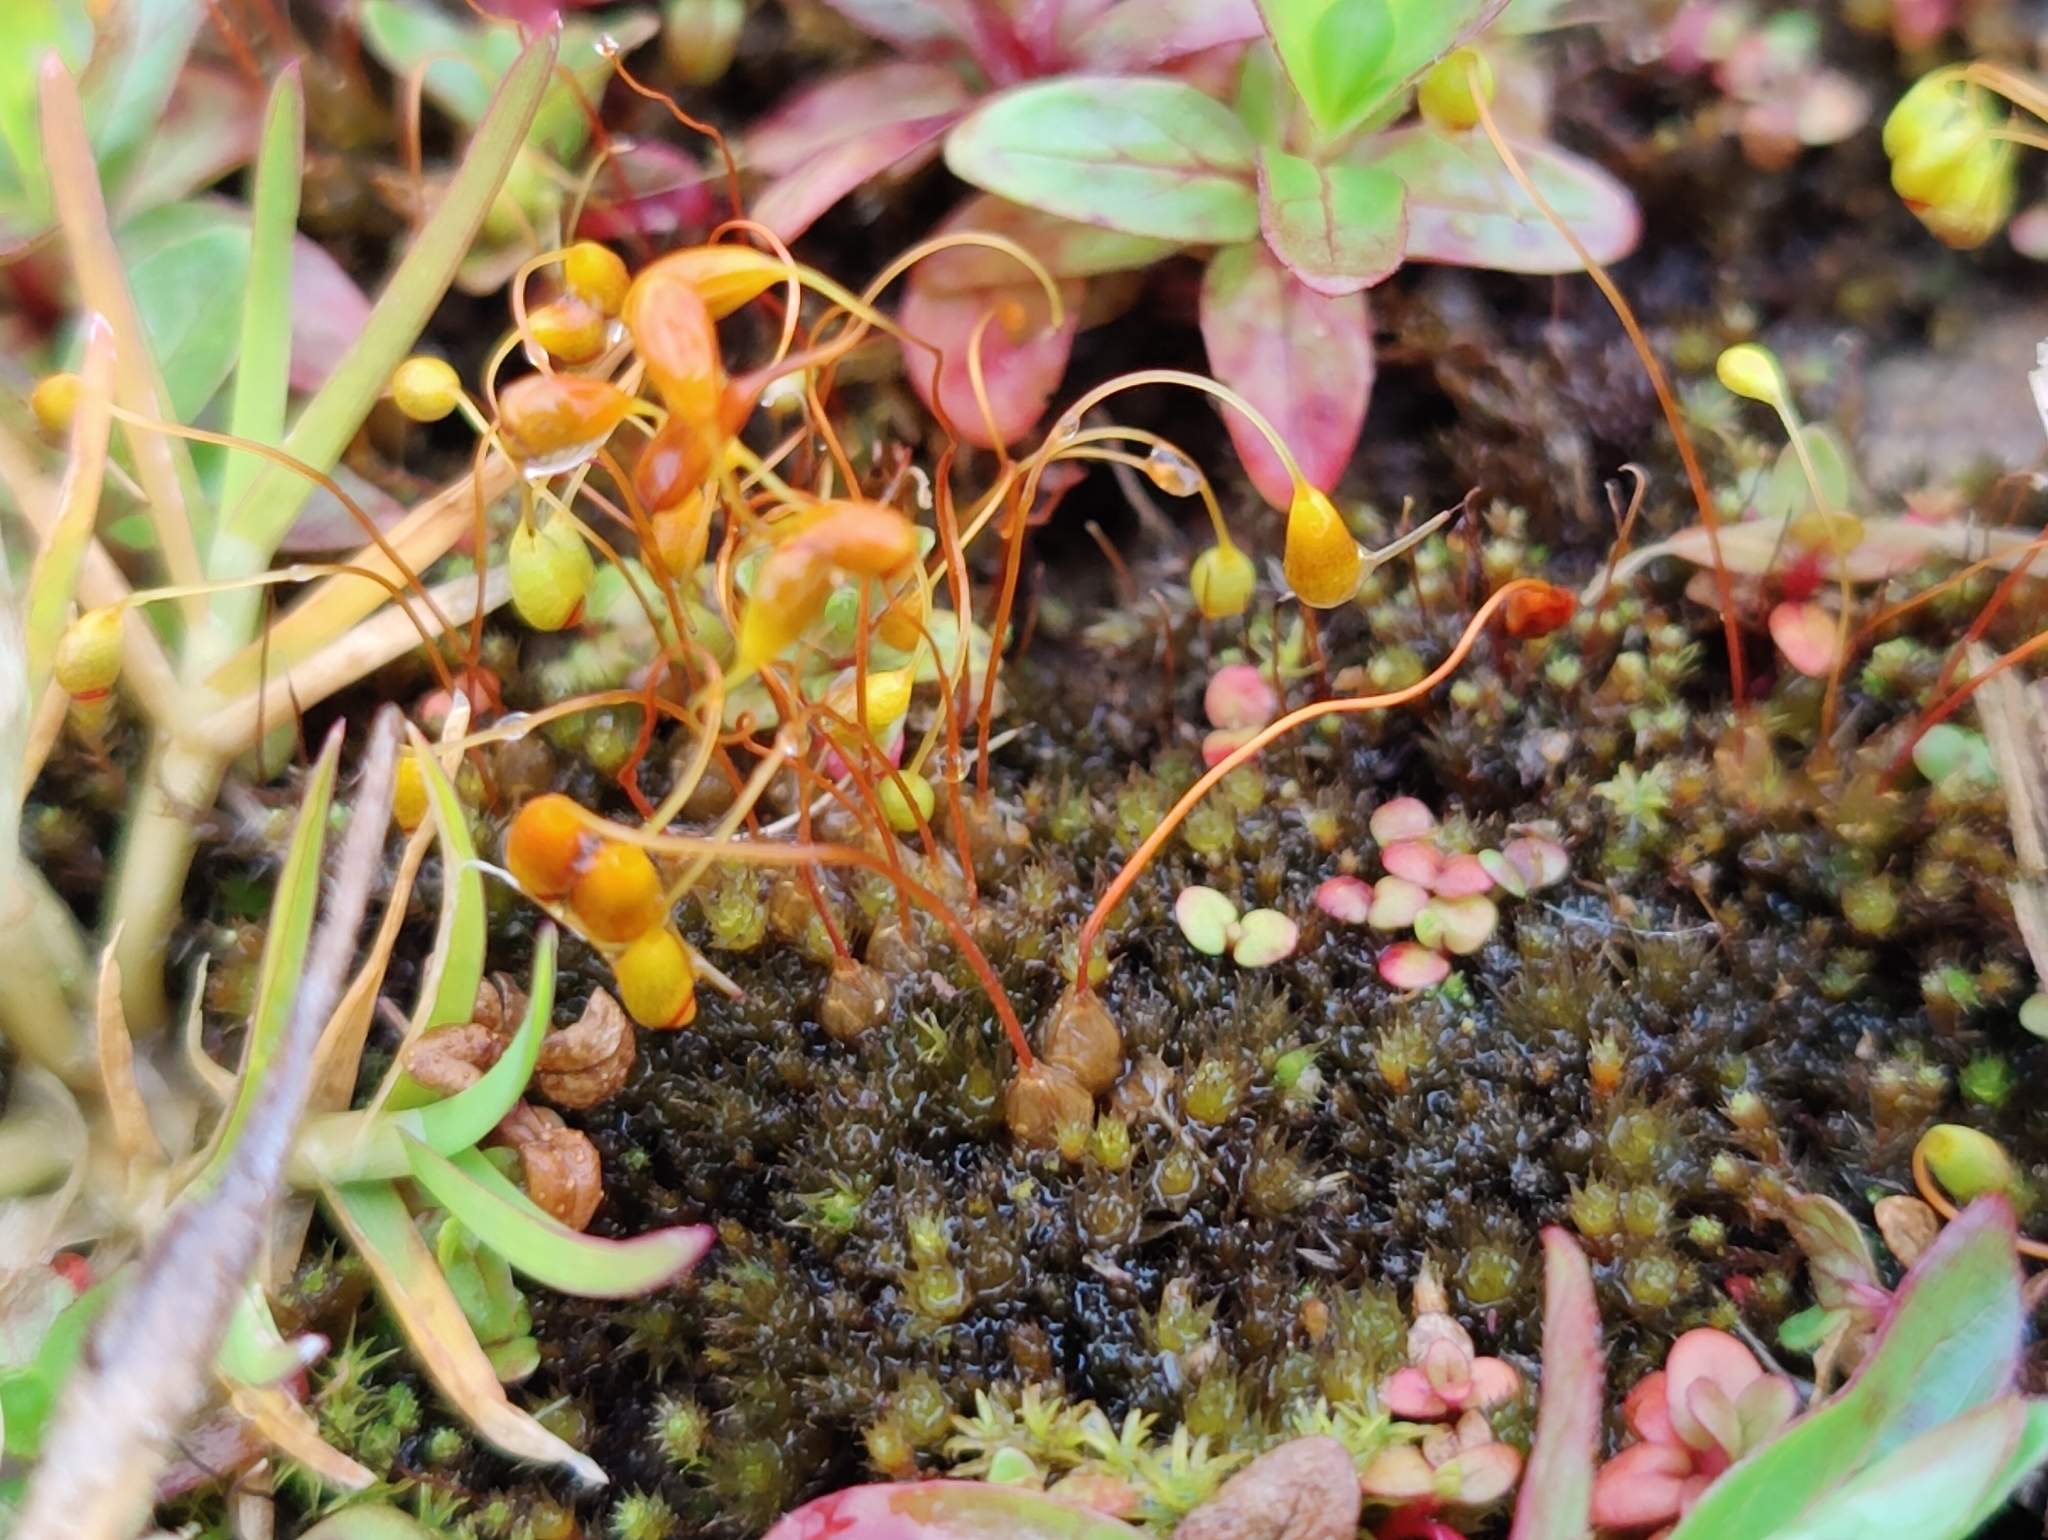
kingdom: Plantae
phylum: Bryophyta
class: Bryopsida
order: Funariales
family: Funariaceae
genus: Funaria
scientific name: Funaria hygrometrica
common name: Common cord moss
